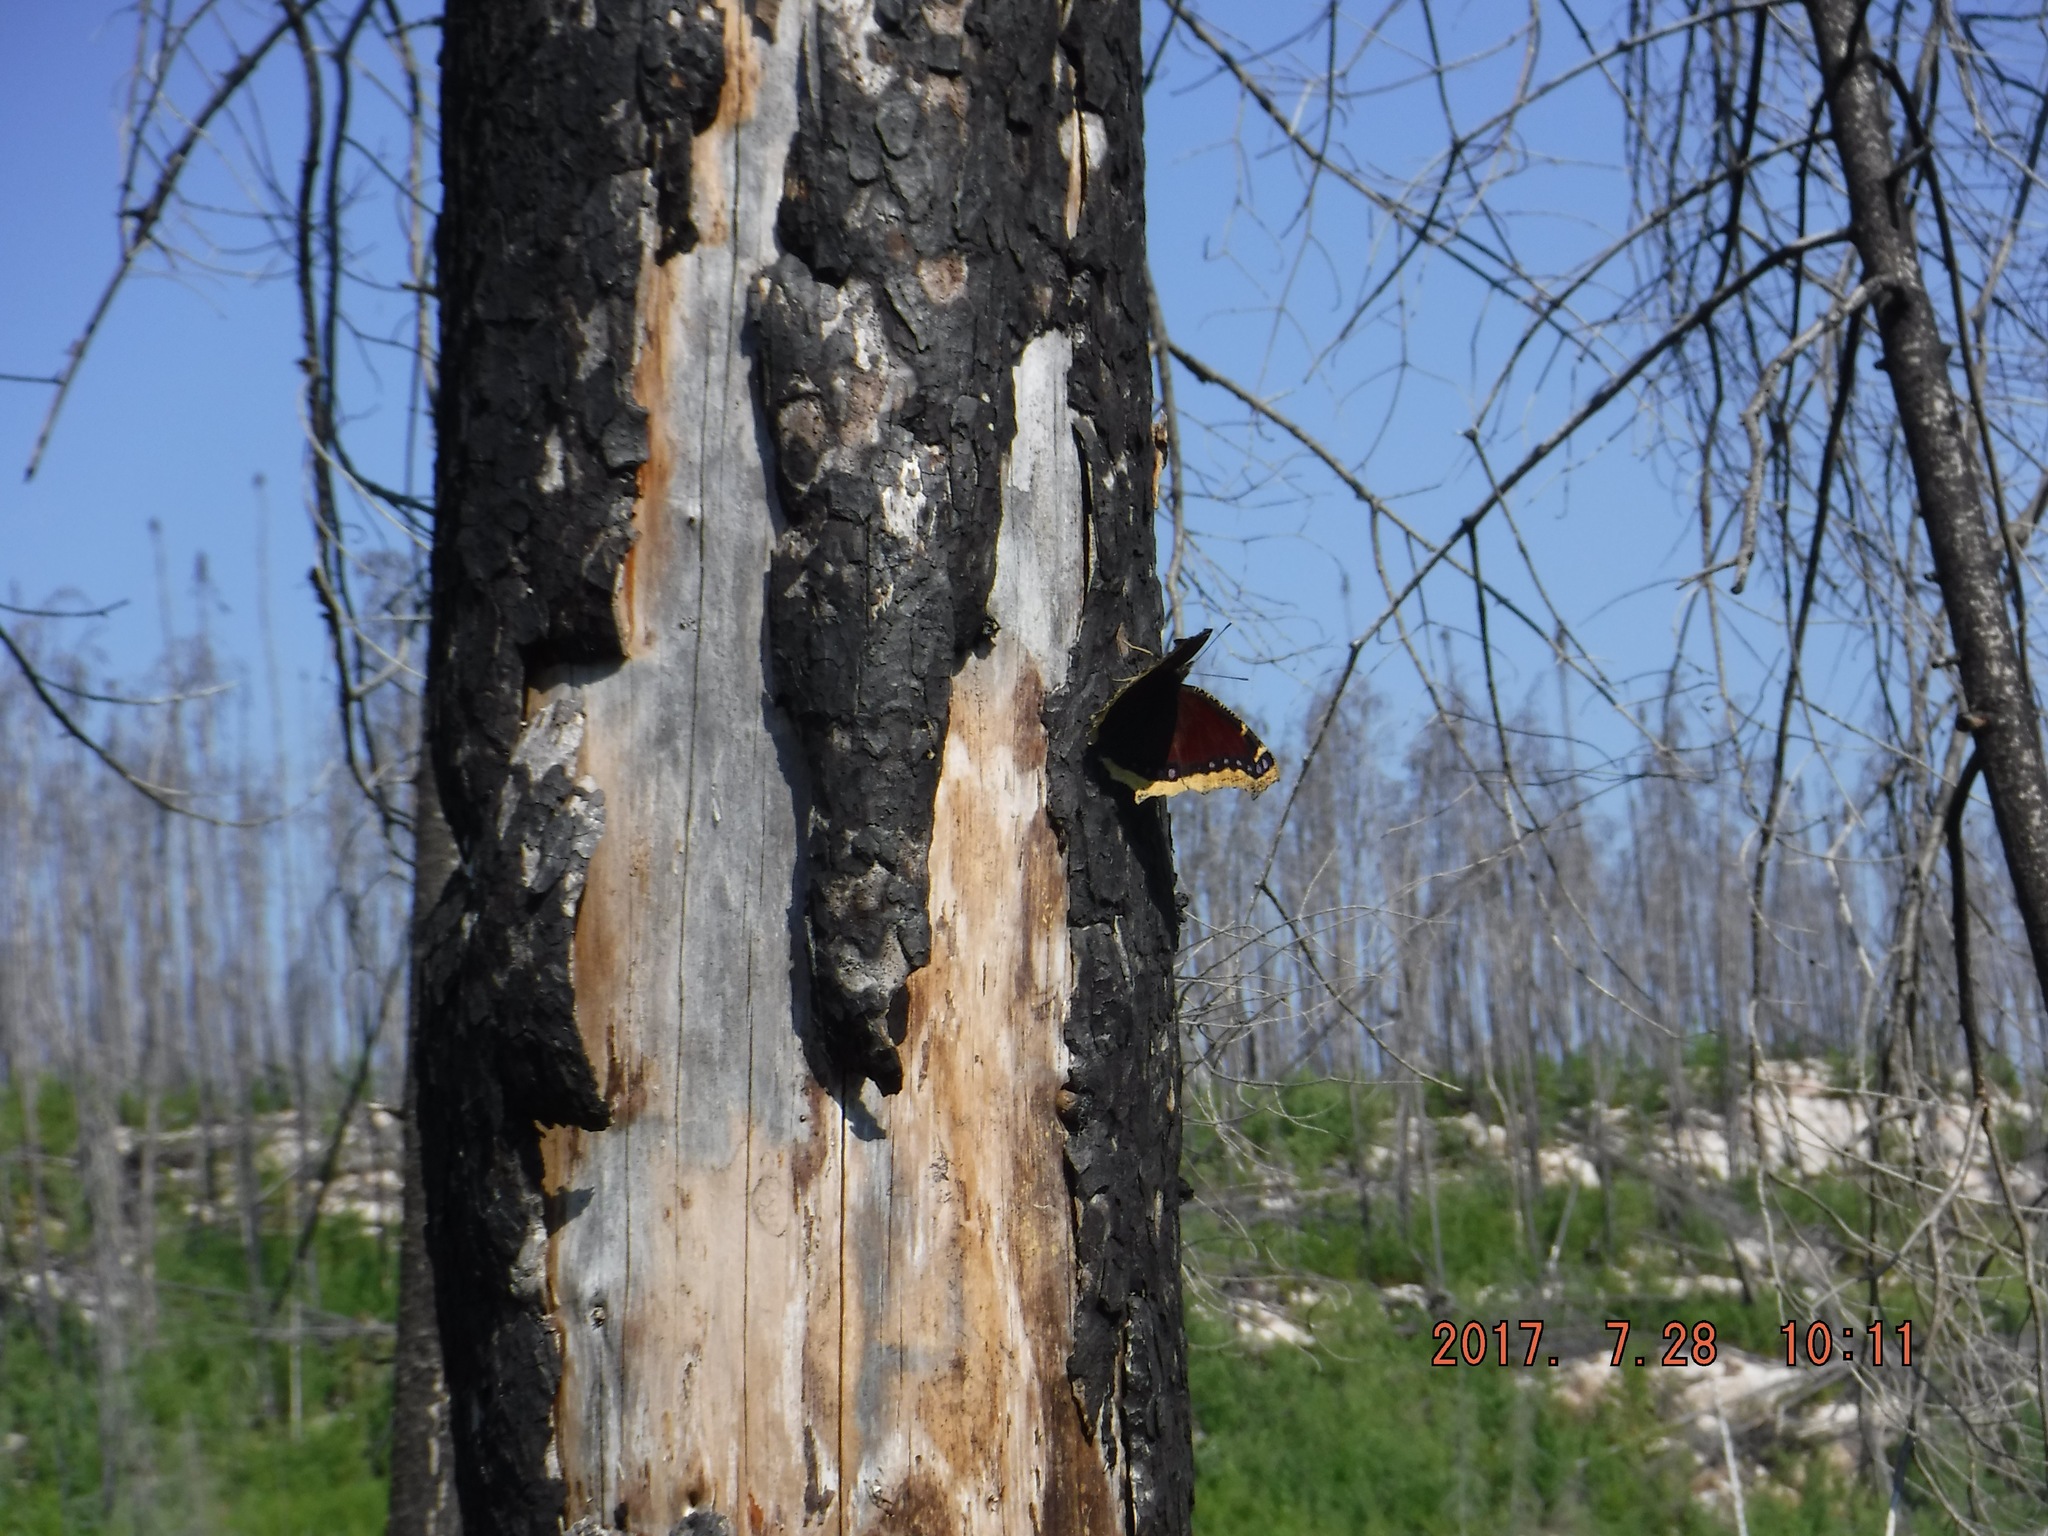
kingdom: Animalia
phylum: Arthropoda
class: Insecta
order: Lepidoptera
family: Nymphalidae
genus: Nymphalis
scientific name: Nymphalis antiopa
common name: Camberwell beauty
